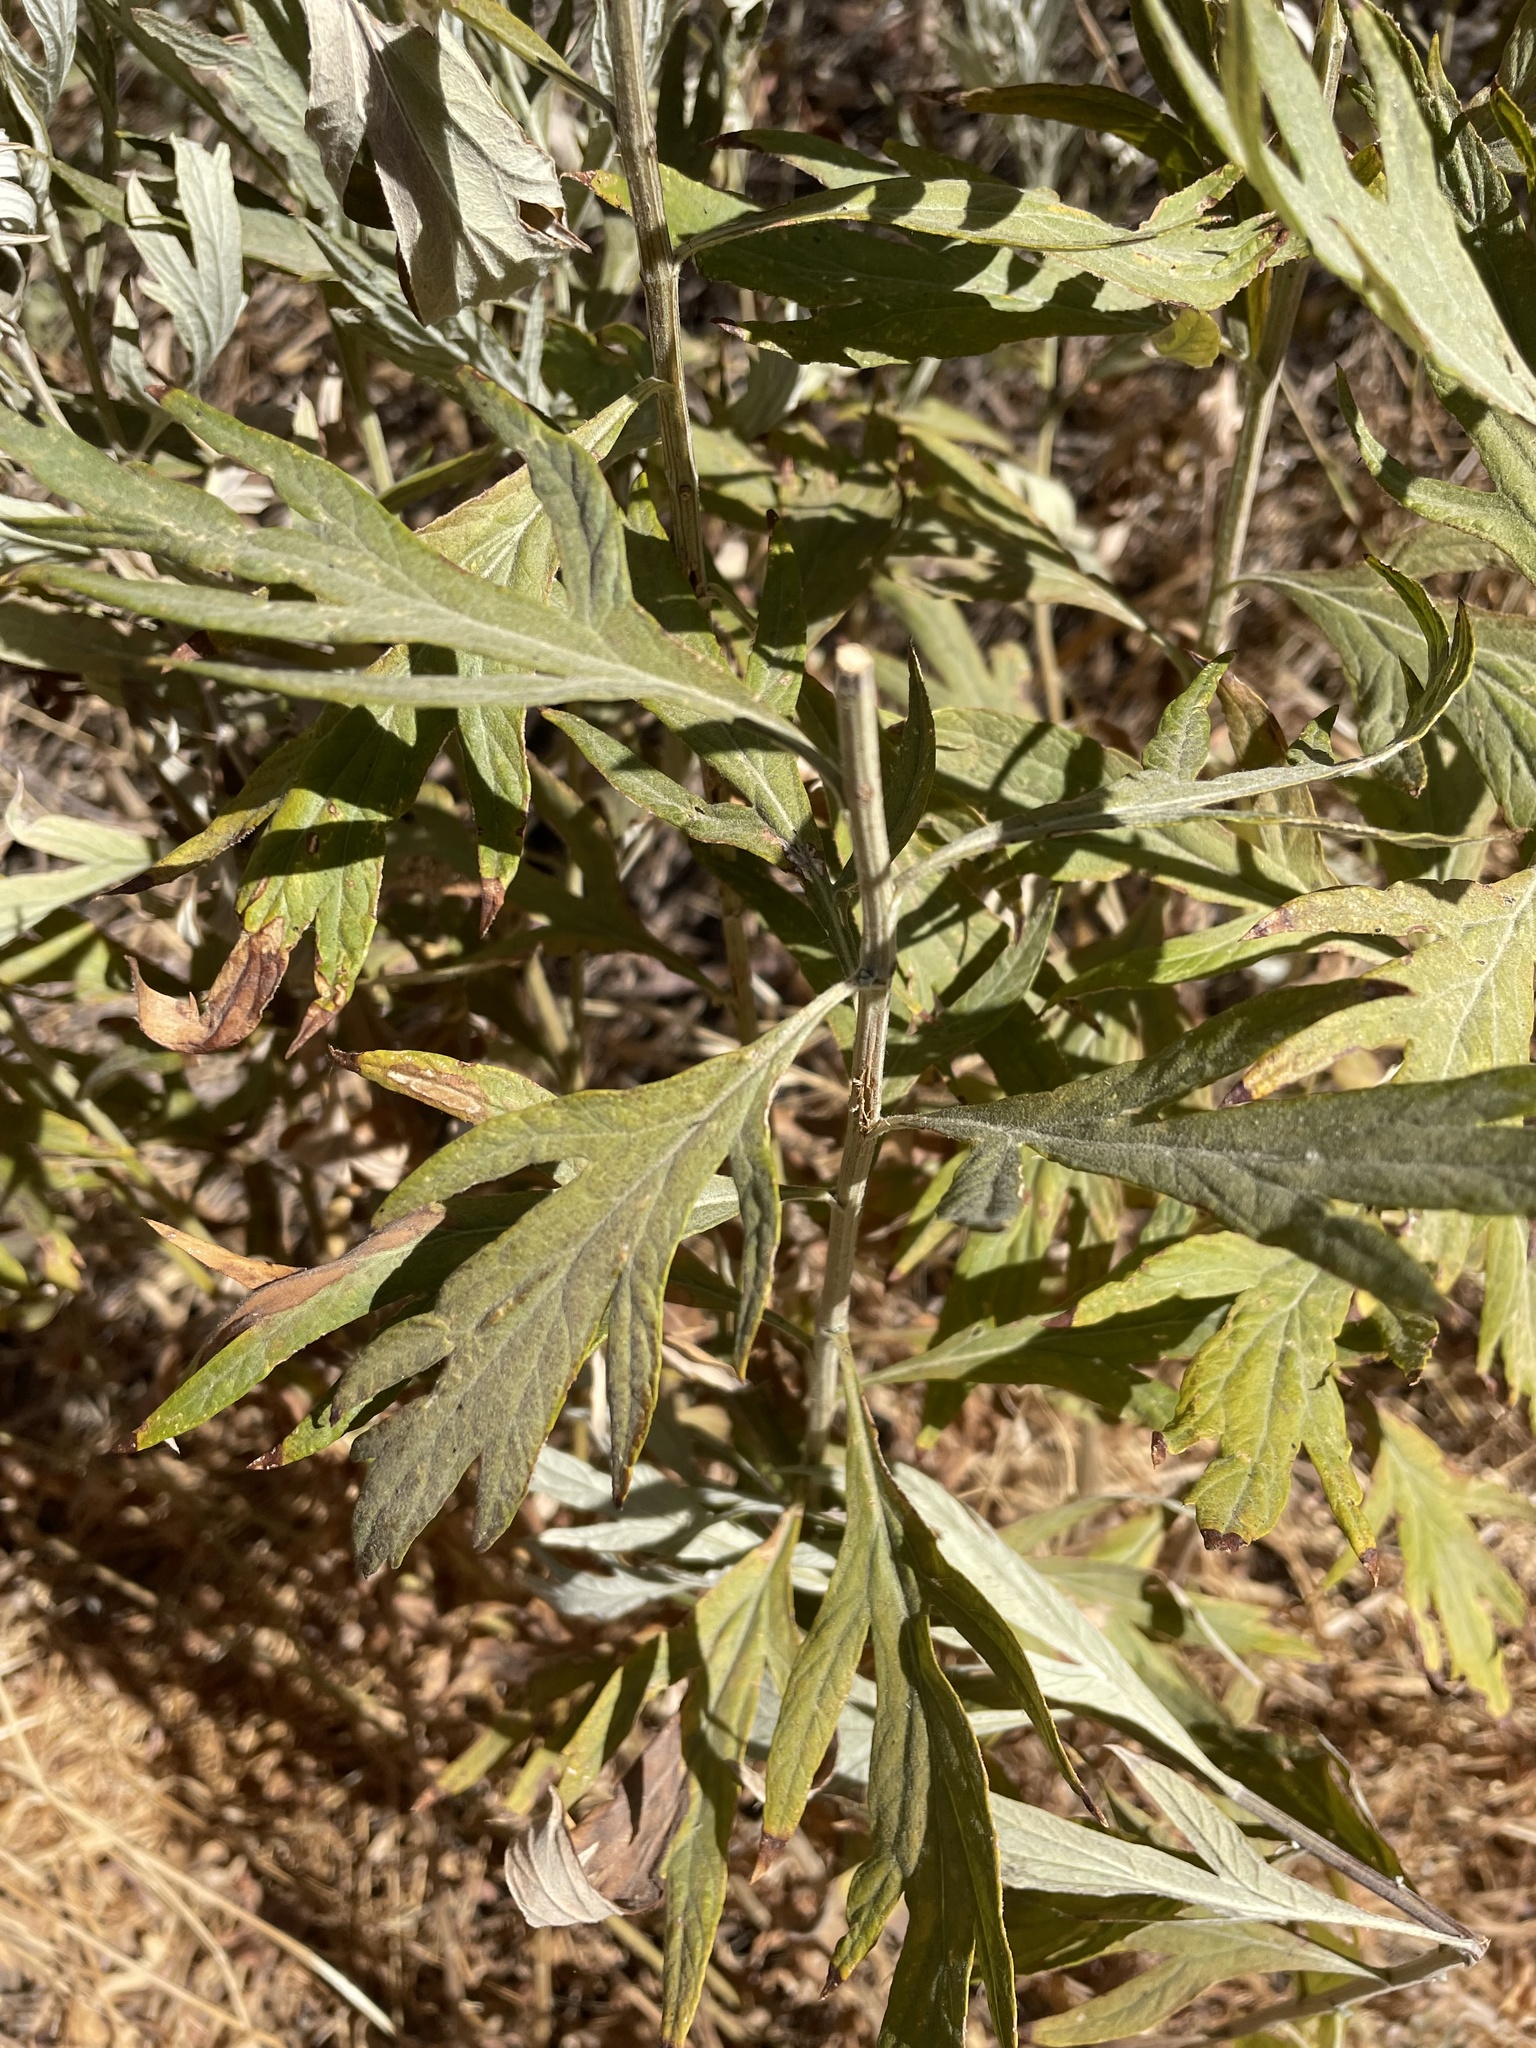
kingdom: Plantae
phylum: Tracheophyta
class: Magnoliopsida
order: Asterales
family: Asteraceae
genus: Artemisia
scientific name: Artemisia douglasiana
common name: Northwest mugwort
